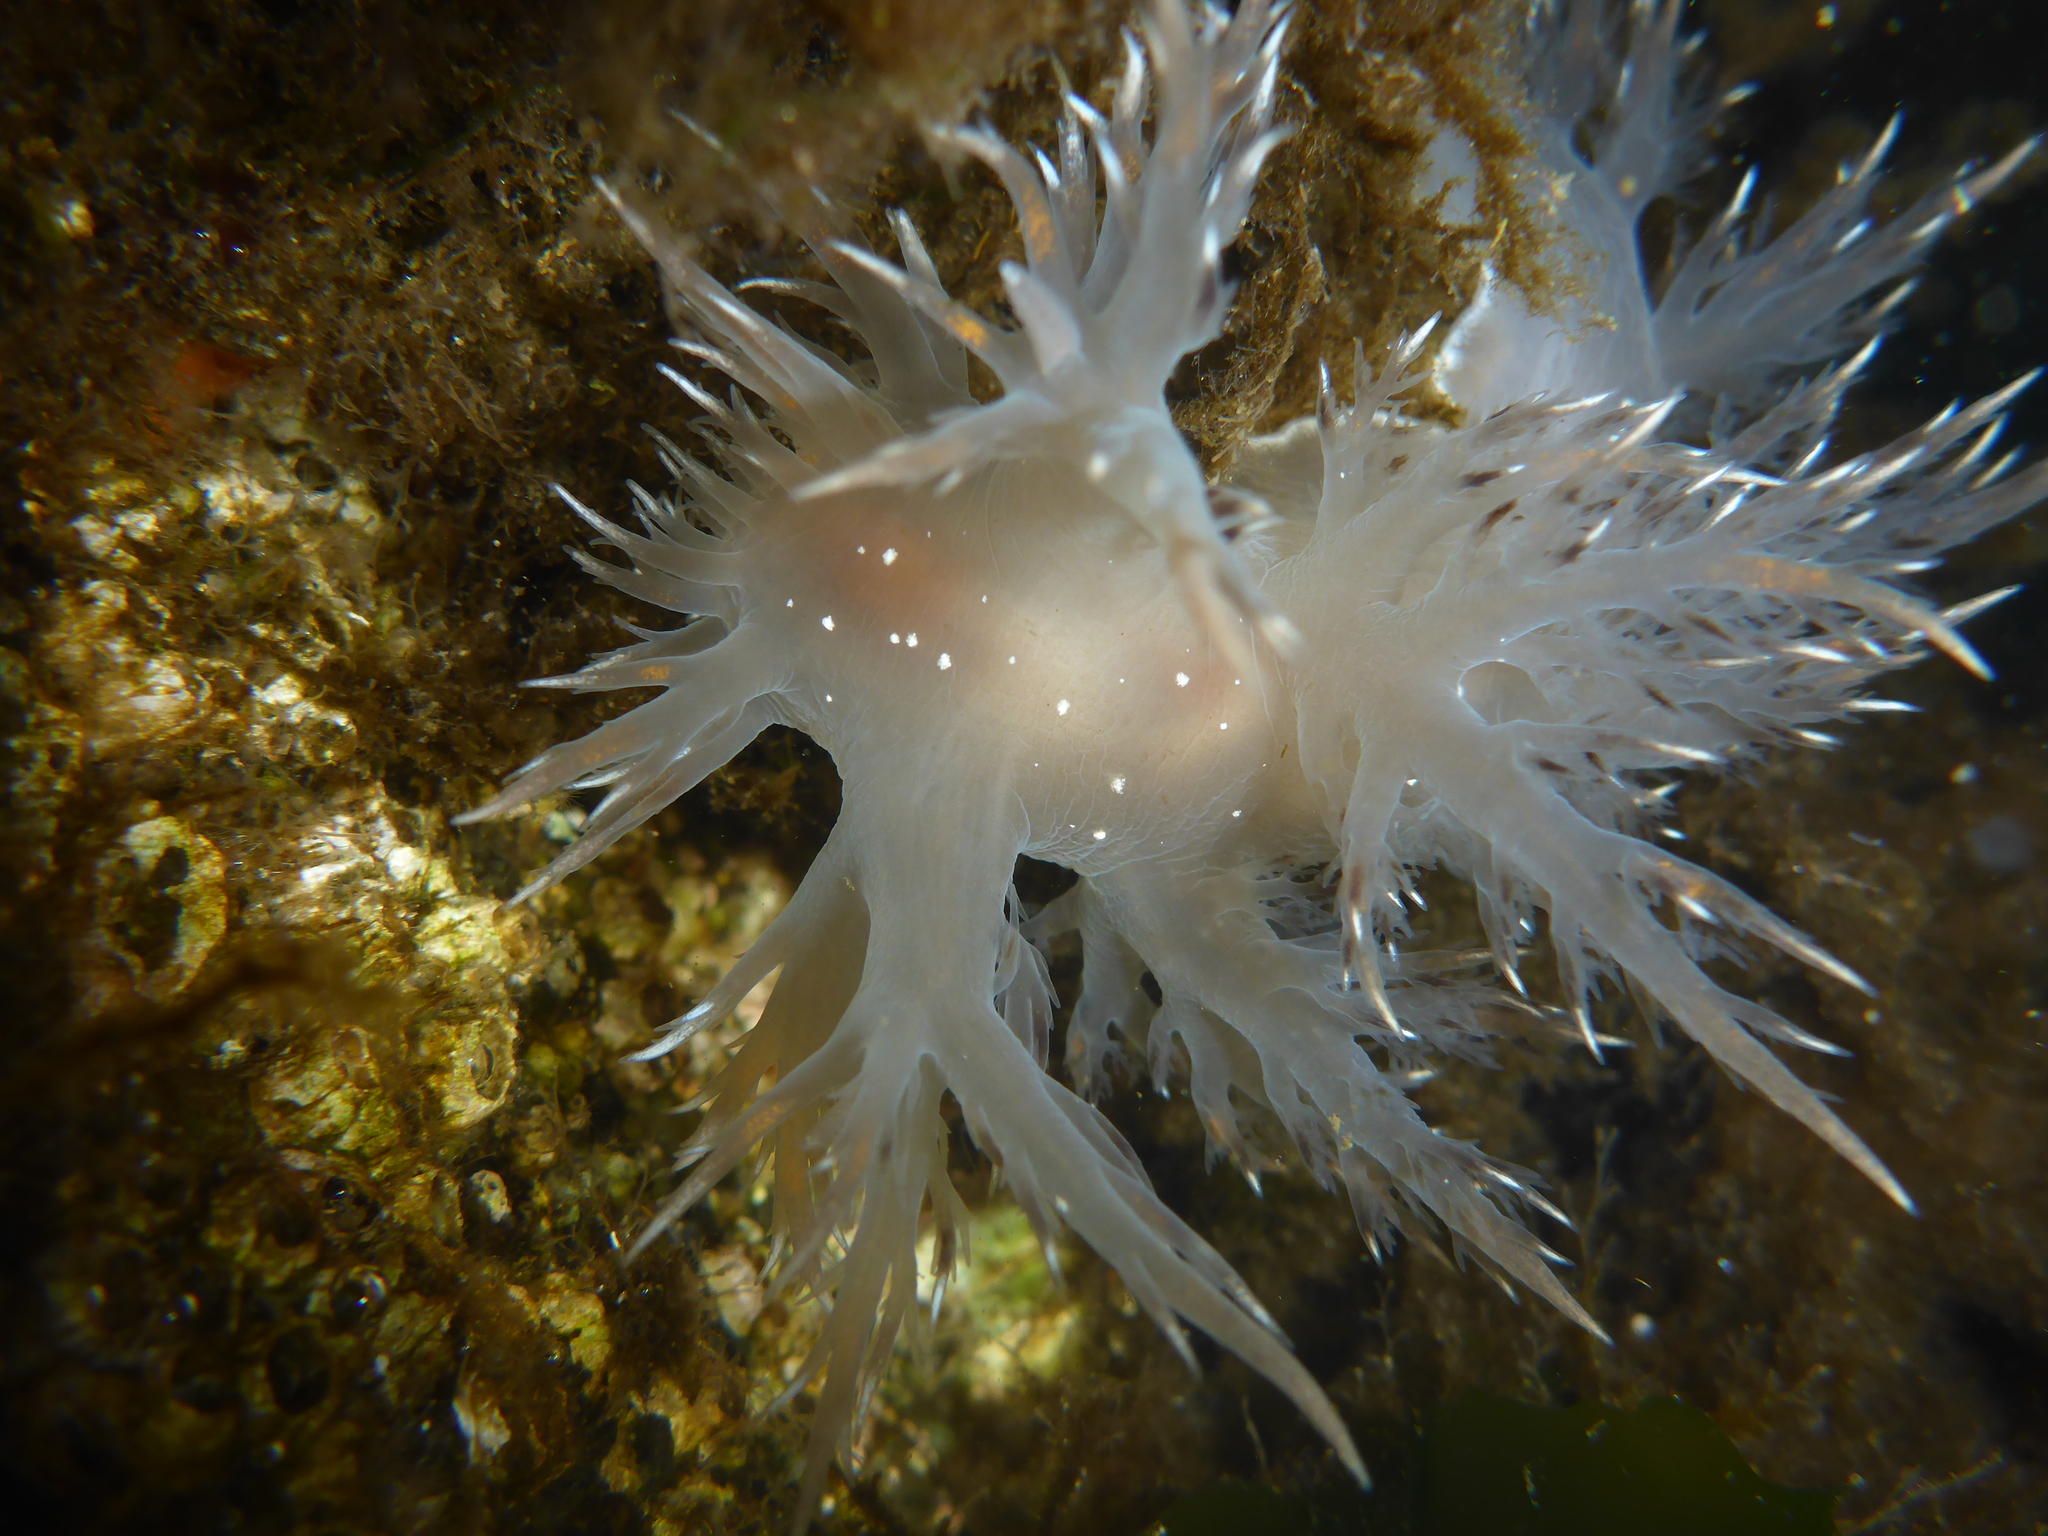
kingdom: Animalia
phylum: Mollusca
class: Gastropoda
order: Nudibranchia
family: Dendronotidae
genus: Dendronotus
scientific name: Dendronotus iris
